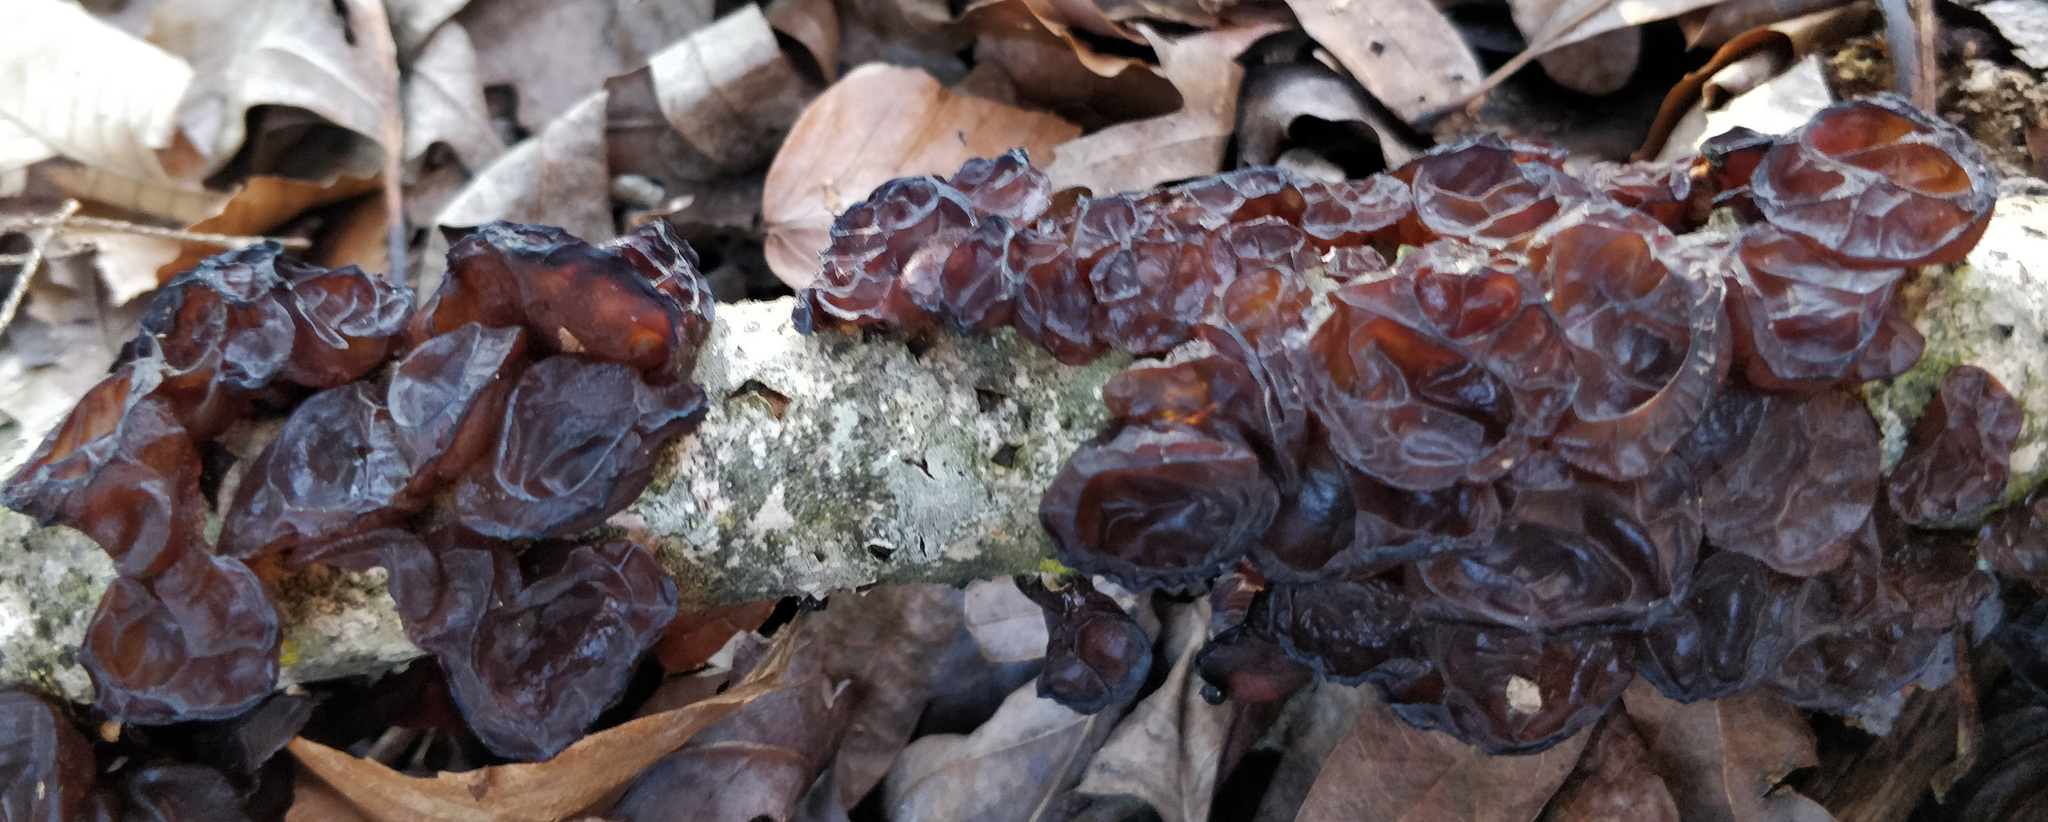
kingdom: Fungi
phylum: Basidiomycota
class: Agaricomycetes
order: Auriculariales
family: Auriculariaceae
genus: Exidia
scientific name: Exidia
